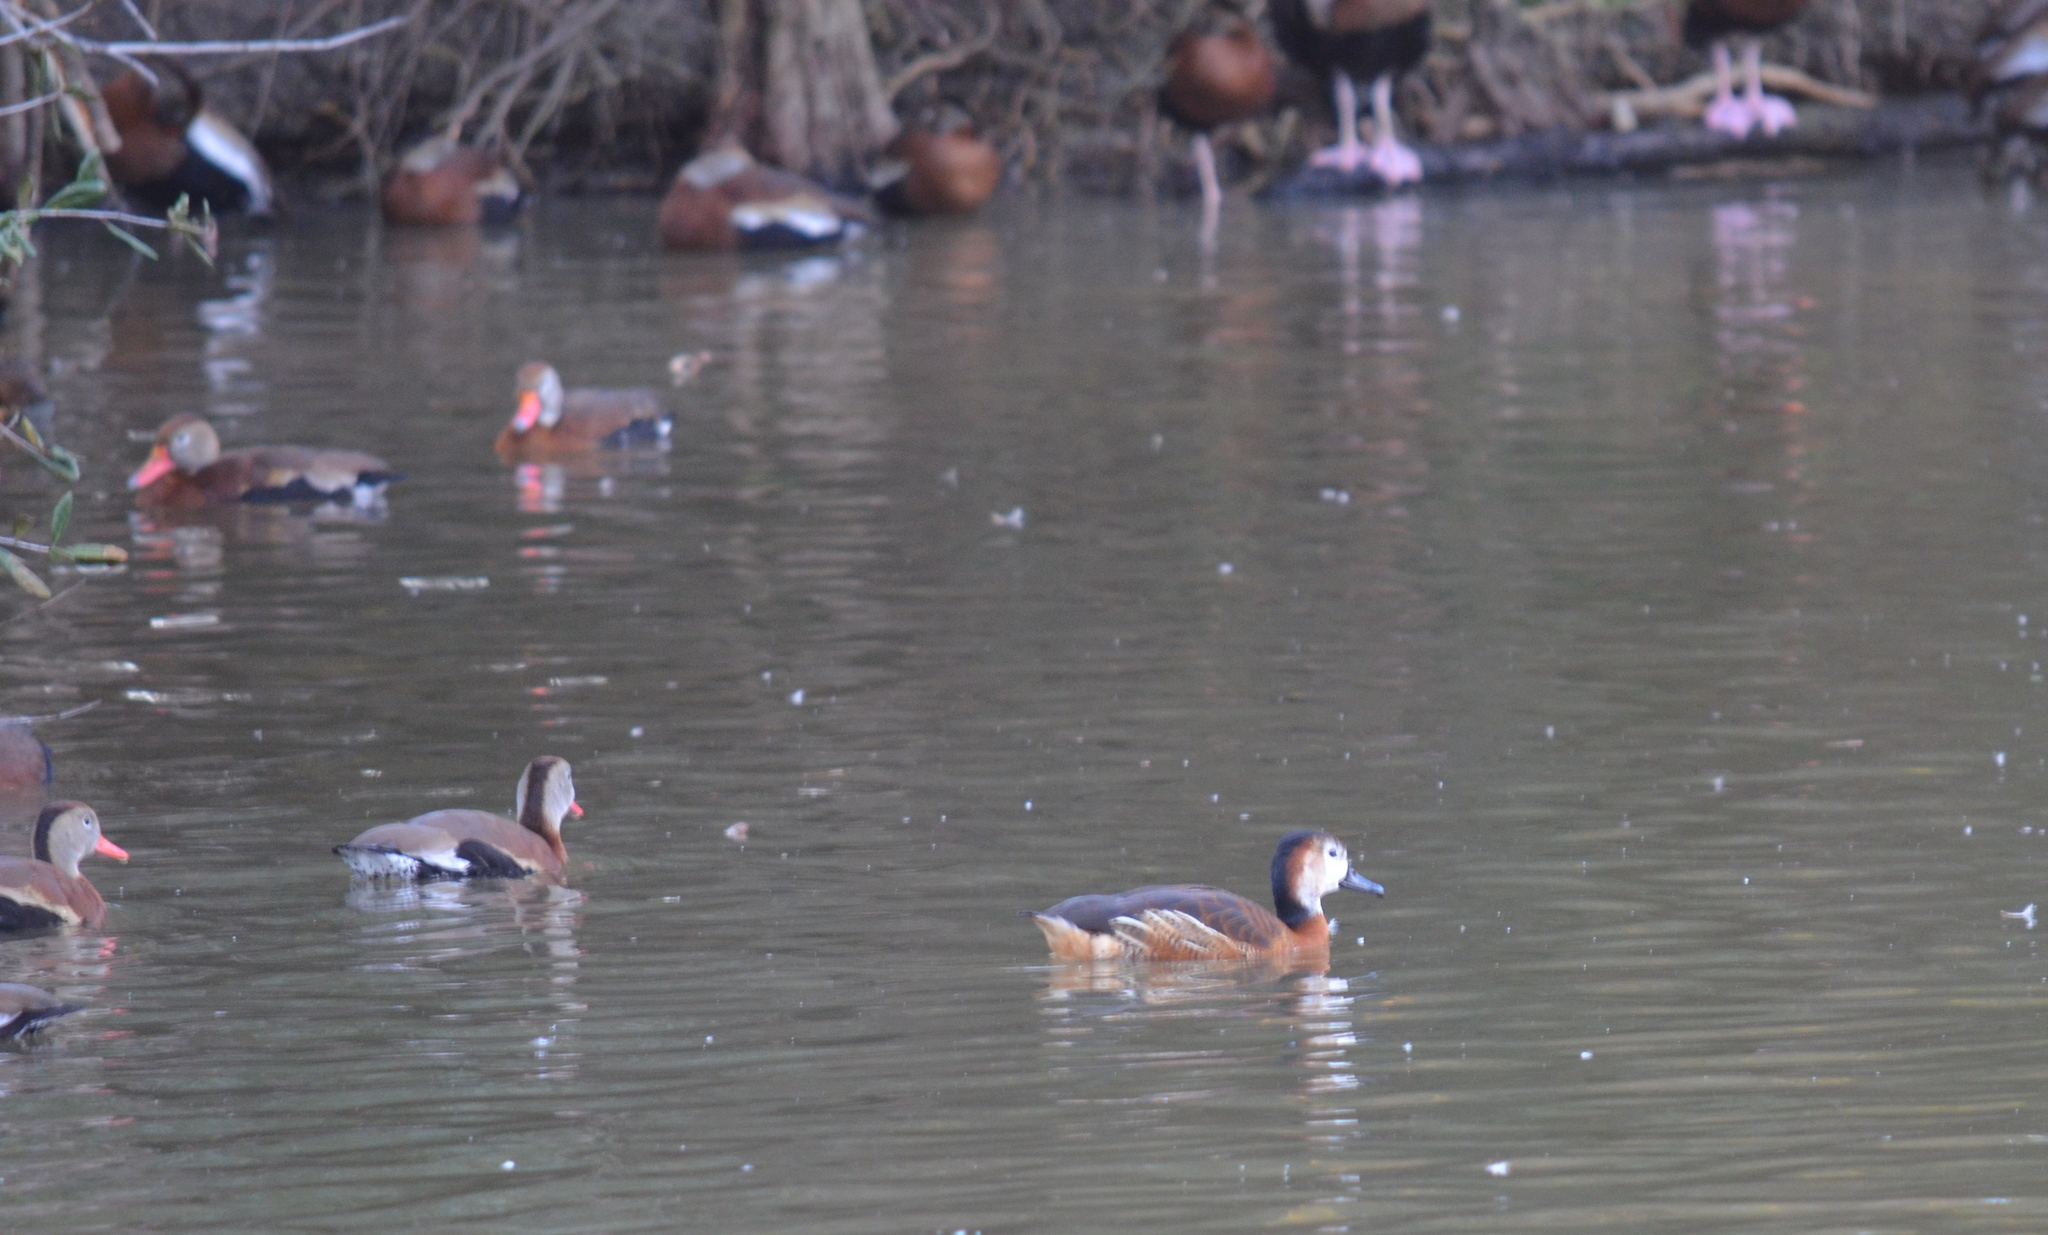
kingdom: Animalia
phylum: Chordata
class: Aves
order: Anseriformes
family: Anatidae
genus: Dendrocygna
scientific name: Dendrocygna bicolor
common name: Fulvous whistling duck
